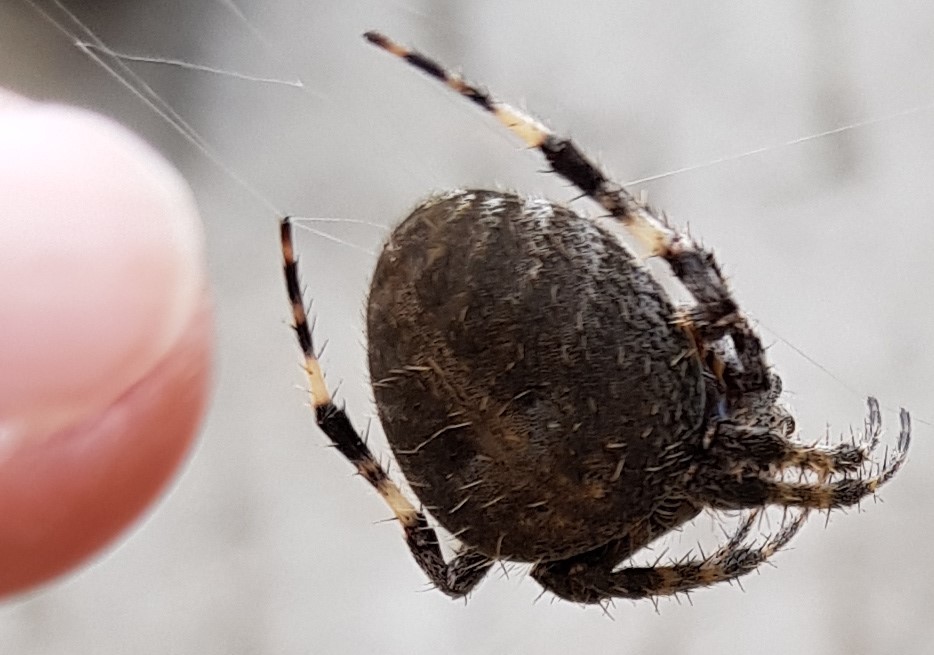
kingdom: Animalia
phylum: Arthropoda
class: Arachnida
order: Araneae
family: Araneidae
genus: Neoscona
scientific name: Neoscona crucifera
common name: Spotted orbweaver
